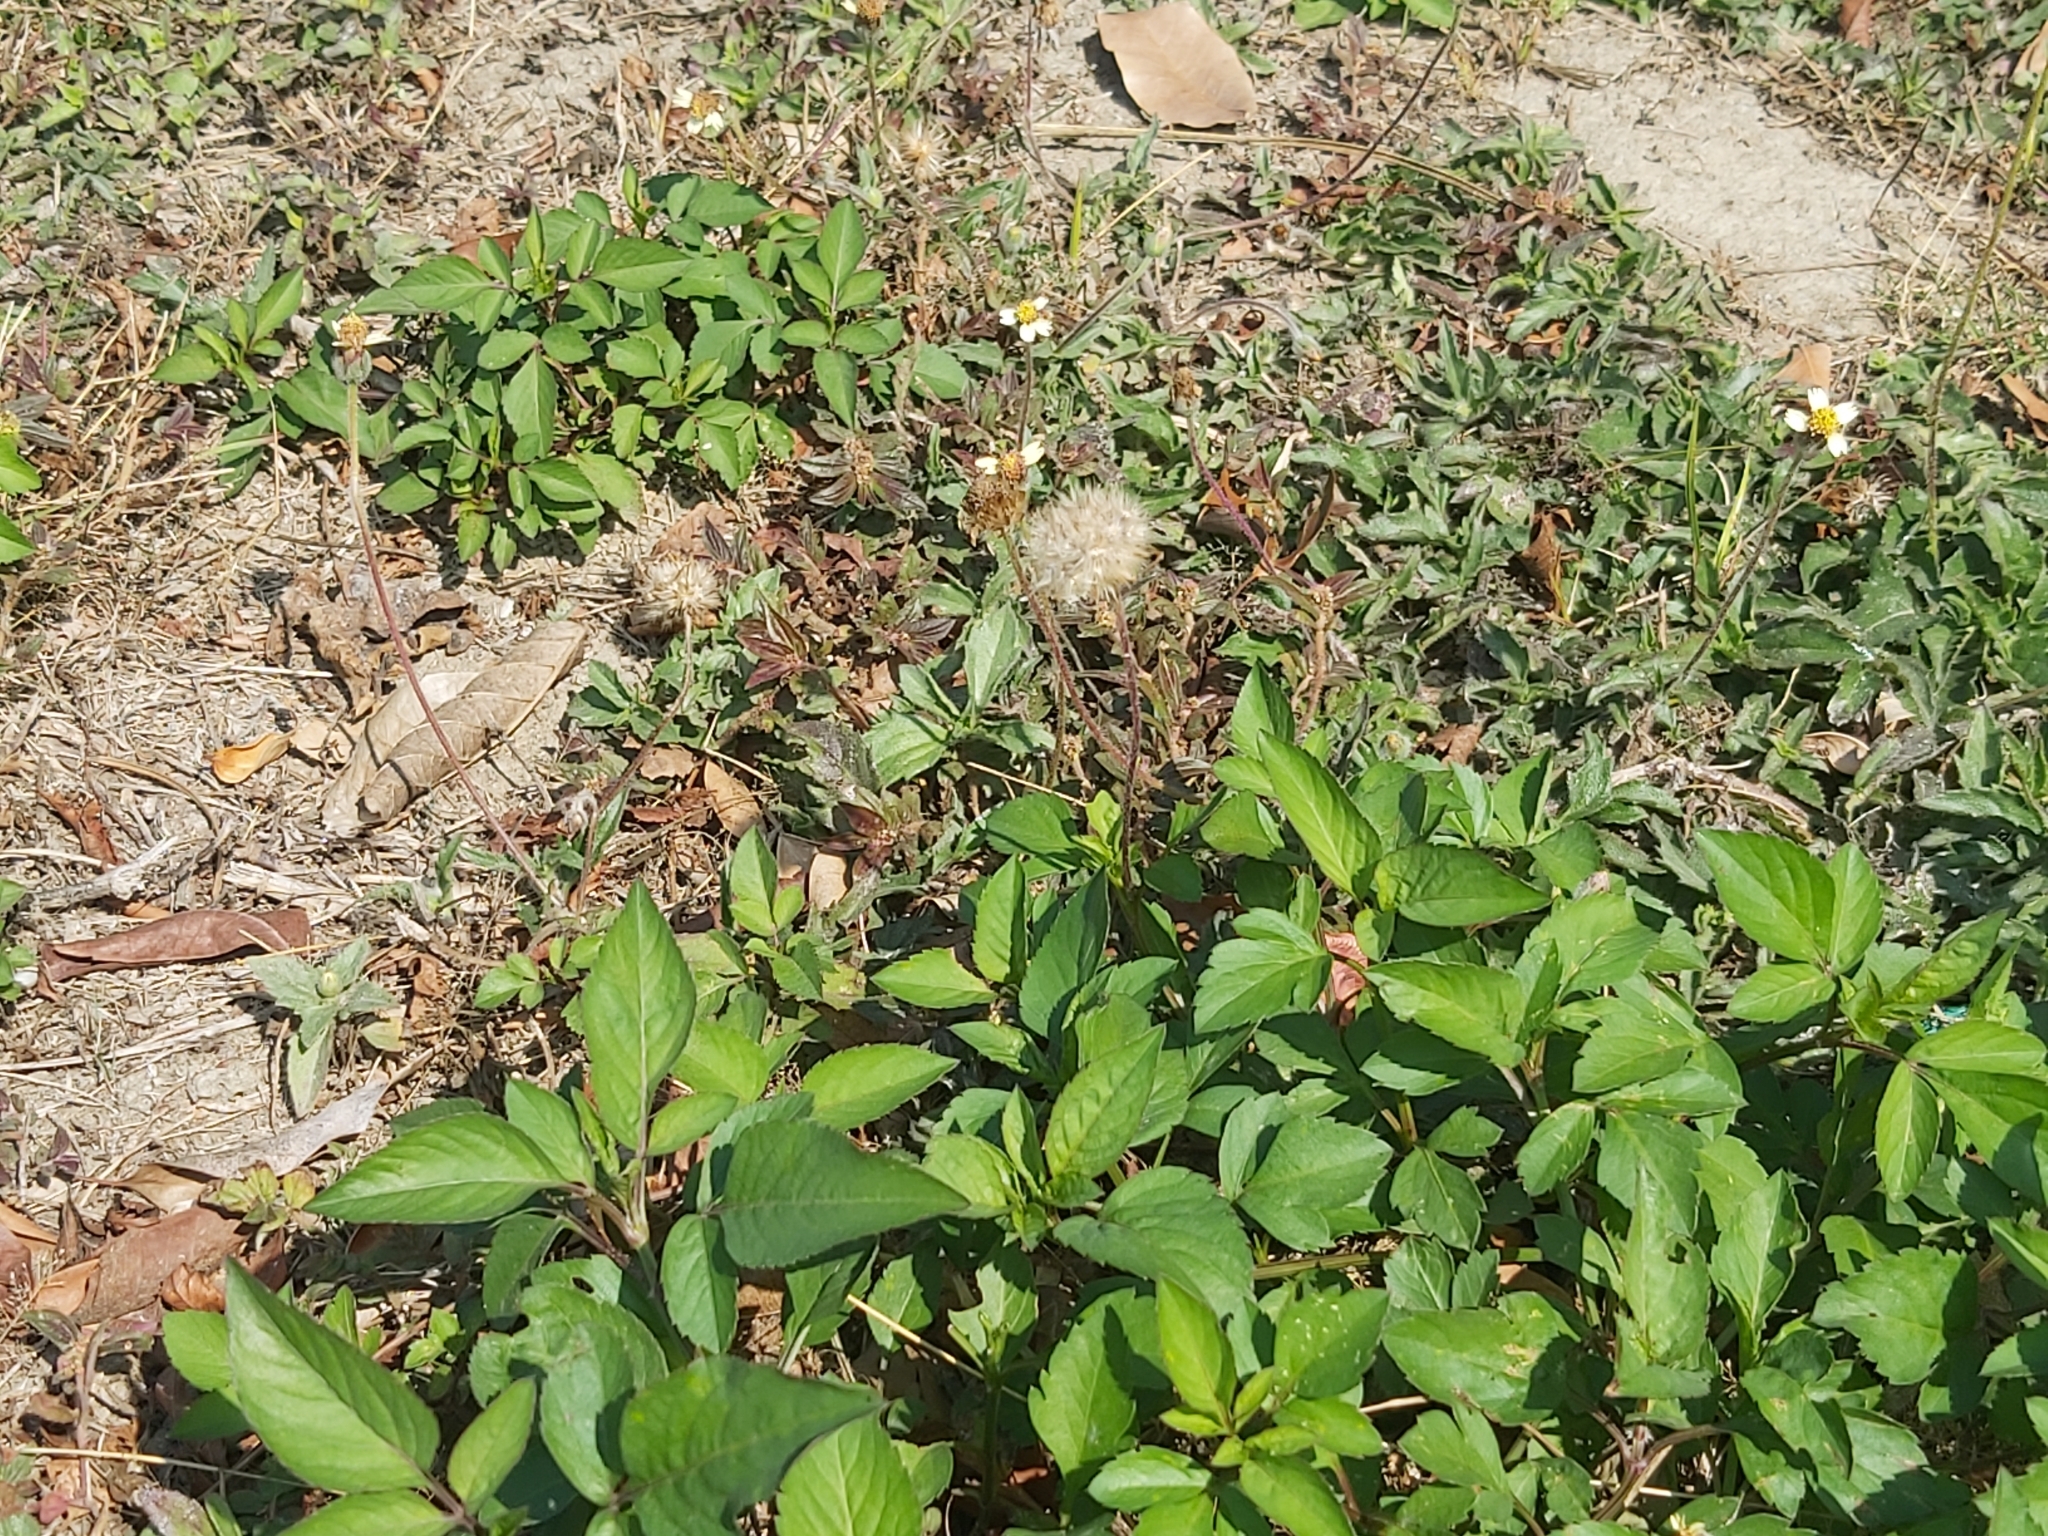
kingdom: Plantae
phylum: Tracheophyta
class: Magnoliopsida
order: Asterales
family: Asteraceae
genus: Tridax
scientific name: Tridax procumbens
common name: Coatbuttons
